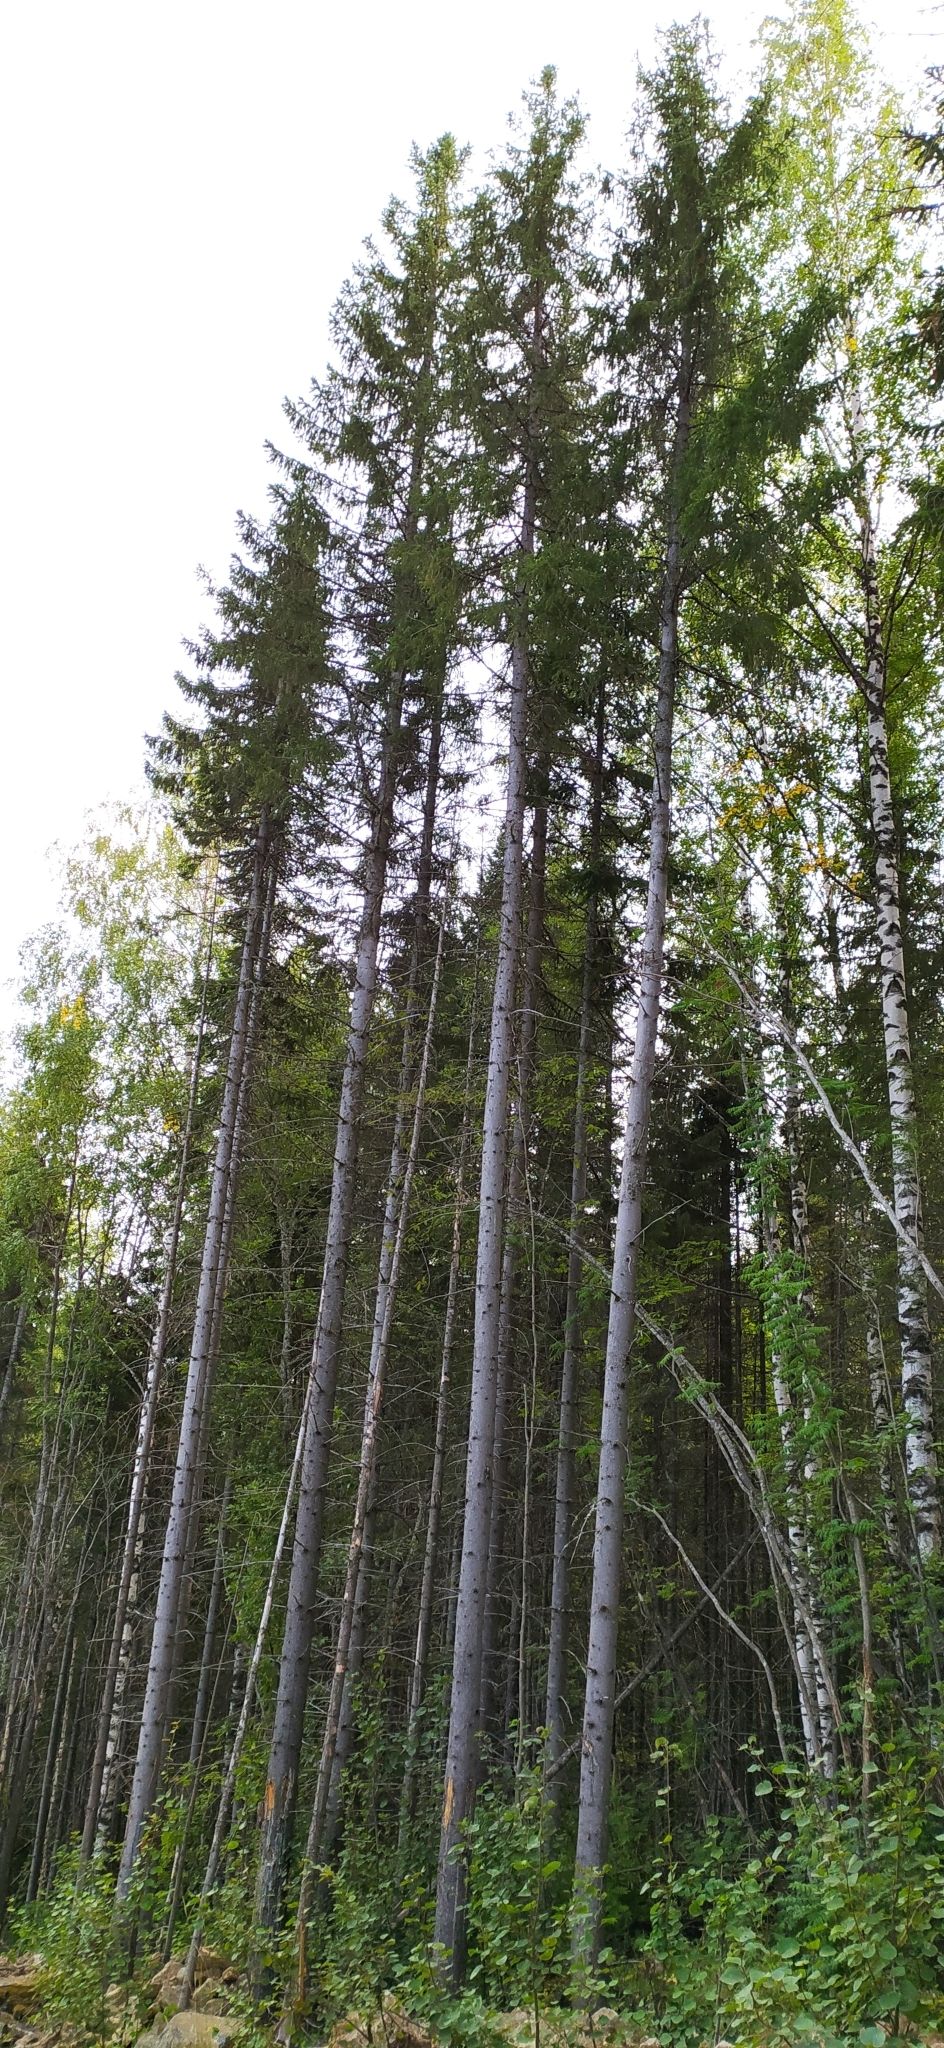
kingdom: Plantae
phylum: Tracheophyta
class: Pinopsida
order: Pinales
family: Pinaceae
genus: Abies
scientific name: Abies sibirica
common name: Siberian fir
